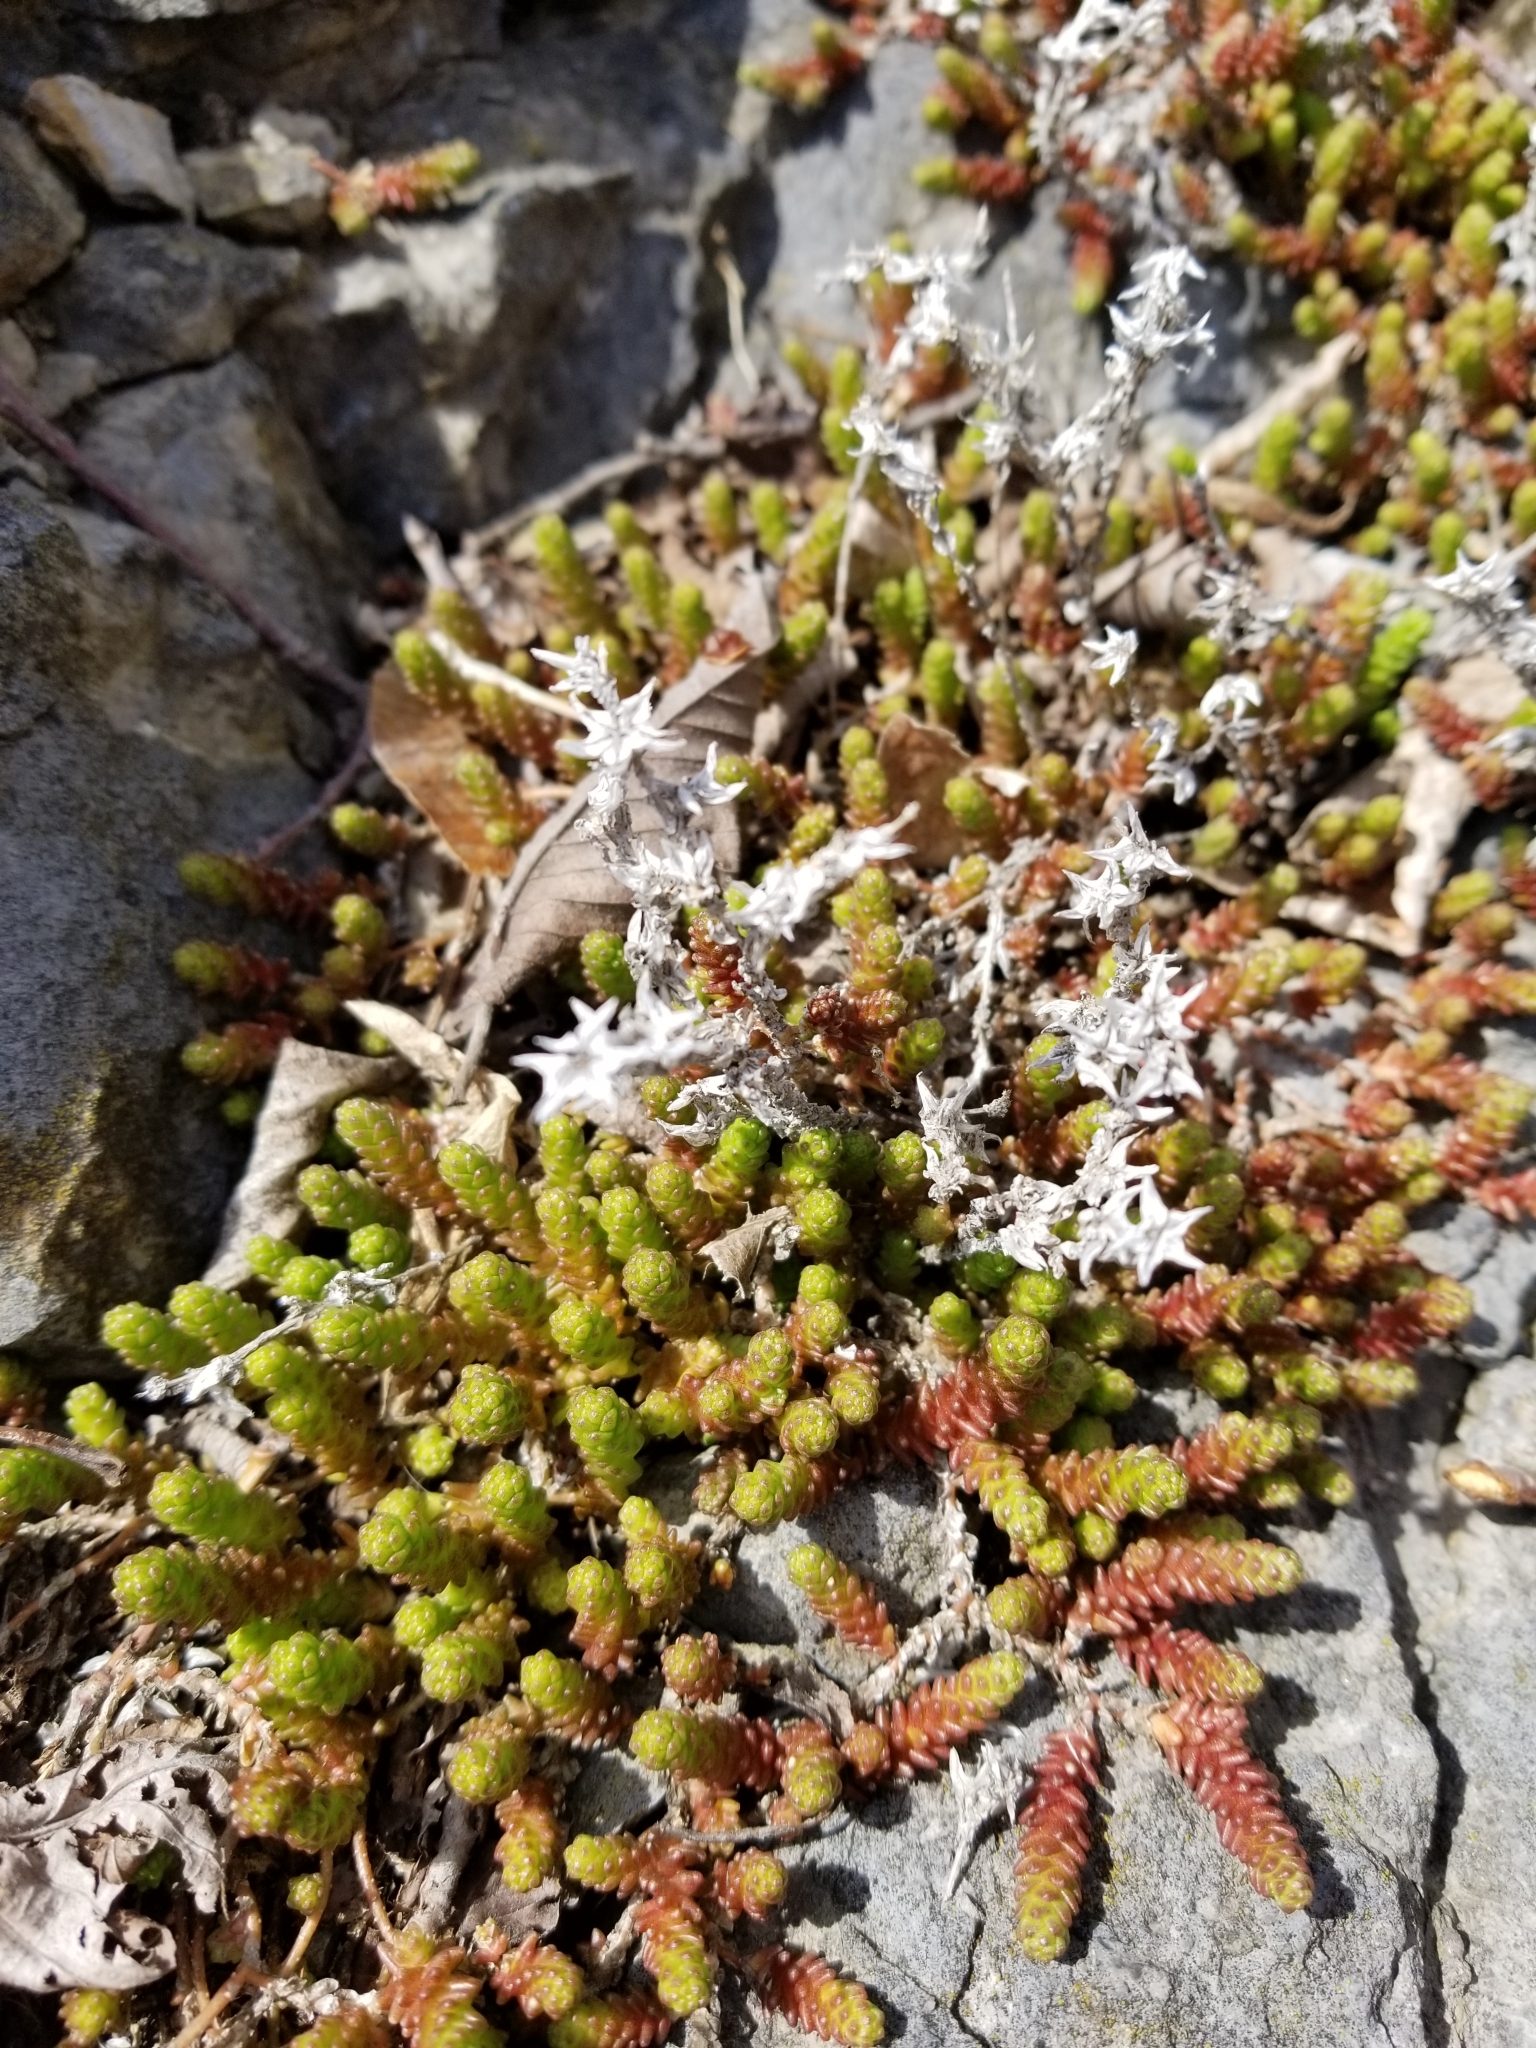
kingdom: Plantae
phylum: Tracheophyta
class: Magnoliopsida
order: Saxifragales
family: Crassulaceae
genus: Sedum
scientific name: Sedum acre
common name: Biting stonecrop
